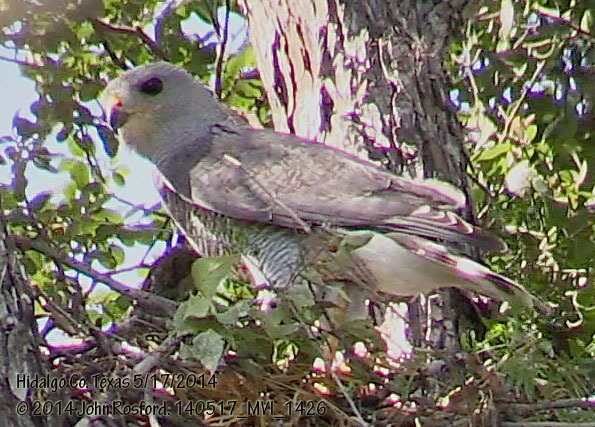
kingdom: Animalia
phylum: Chordata
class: Aves
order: Accipitriformes
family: Accipitridae
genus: Buteo
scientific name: Buteo nitidus
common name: Grey-lined hawk
